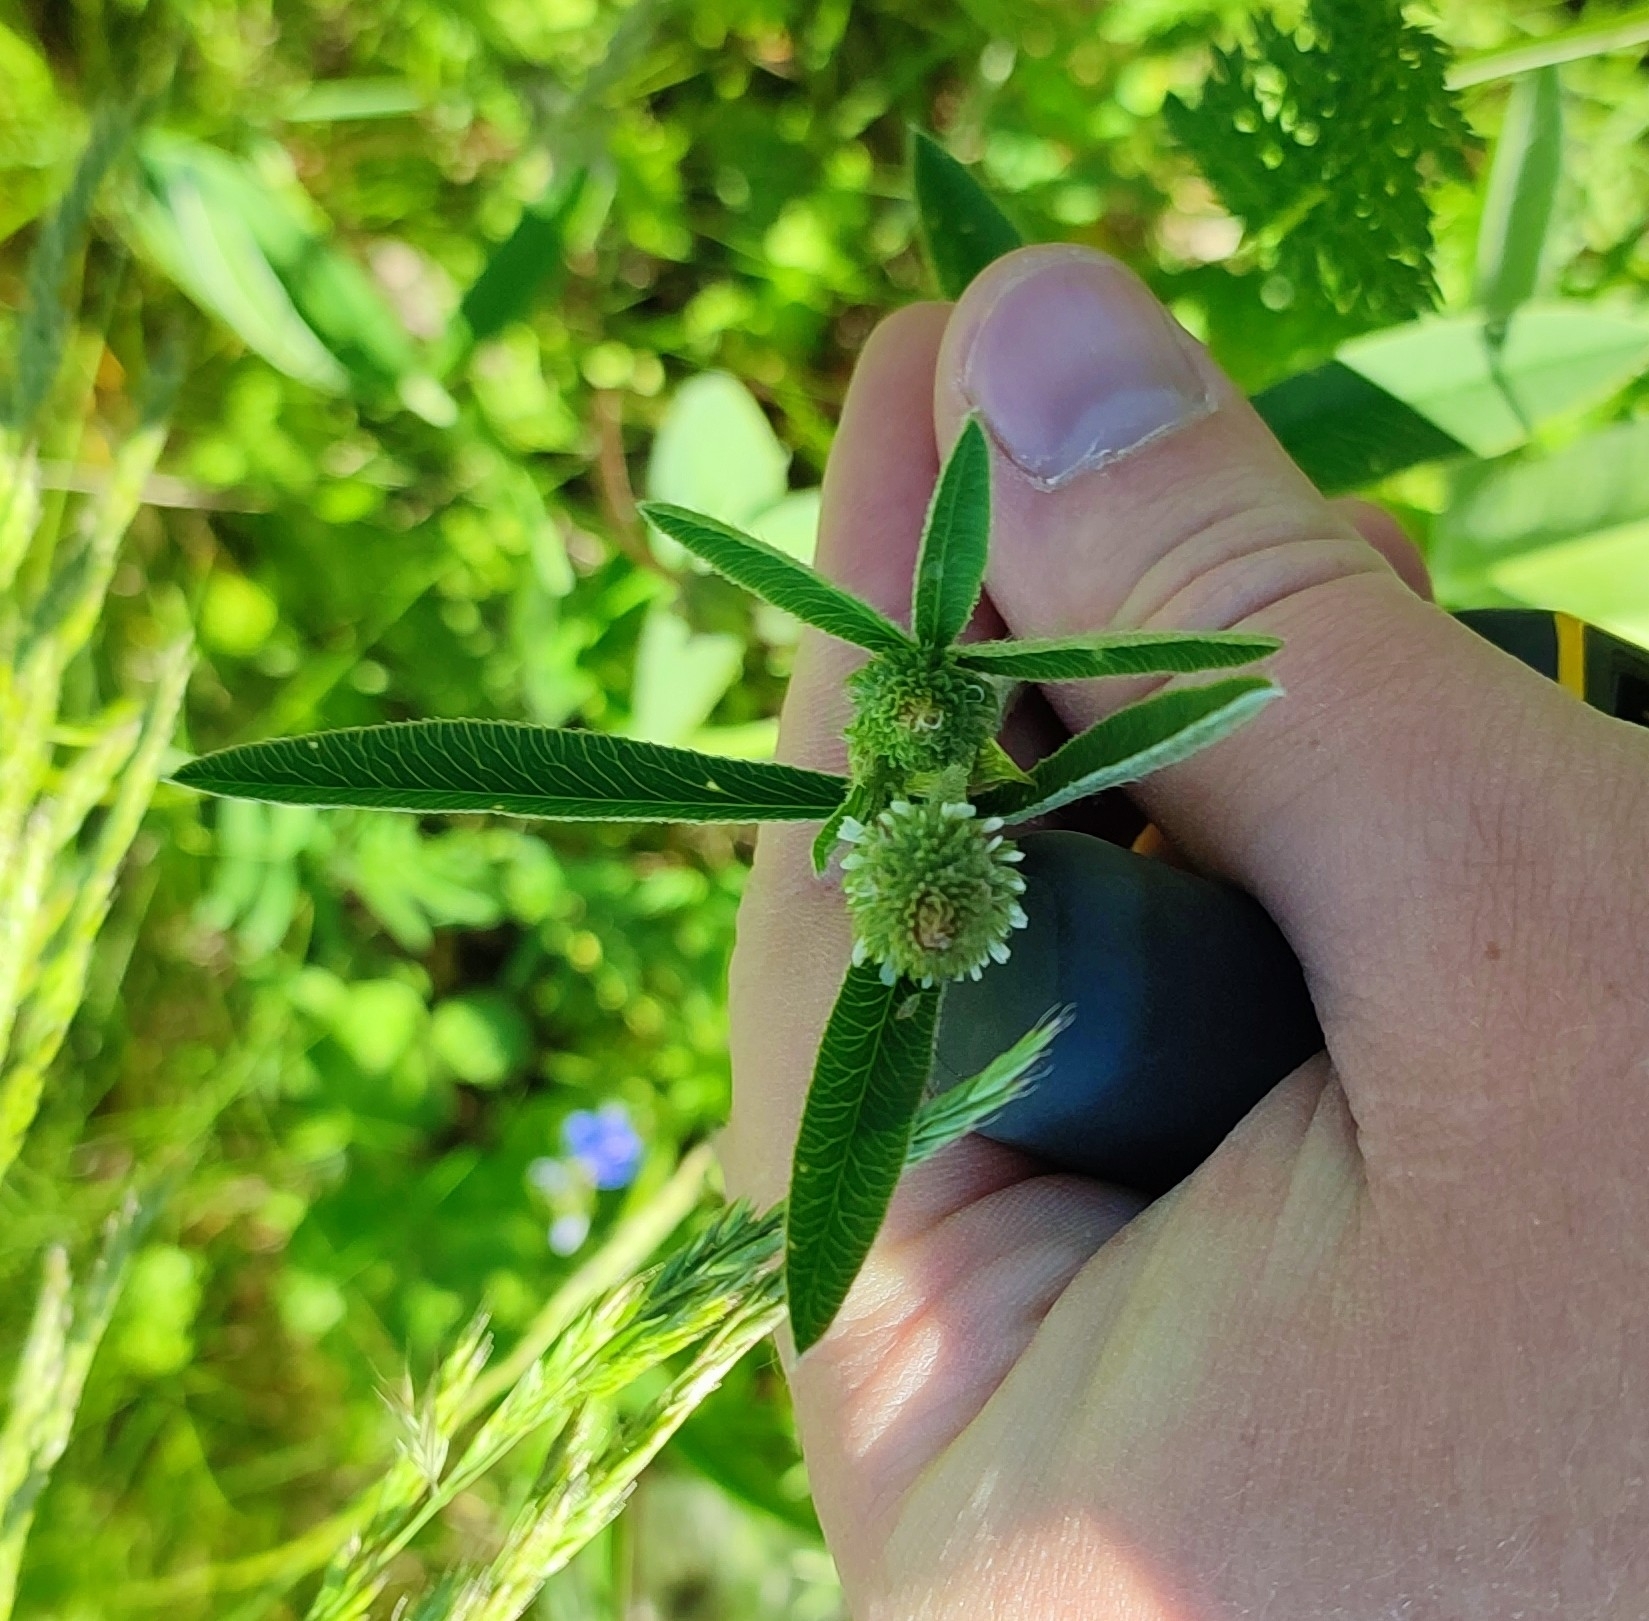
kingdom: Plantae
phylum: Tracheophyta
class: Magnoliopsida
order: Fabales
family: Fabaceae
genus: Trifolium
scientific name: Trifolium montanum
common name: Mountain clover
